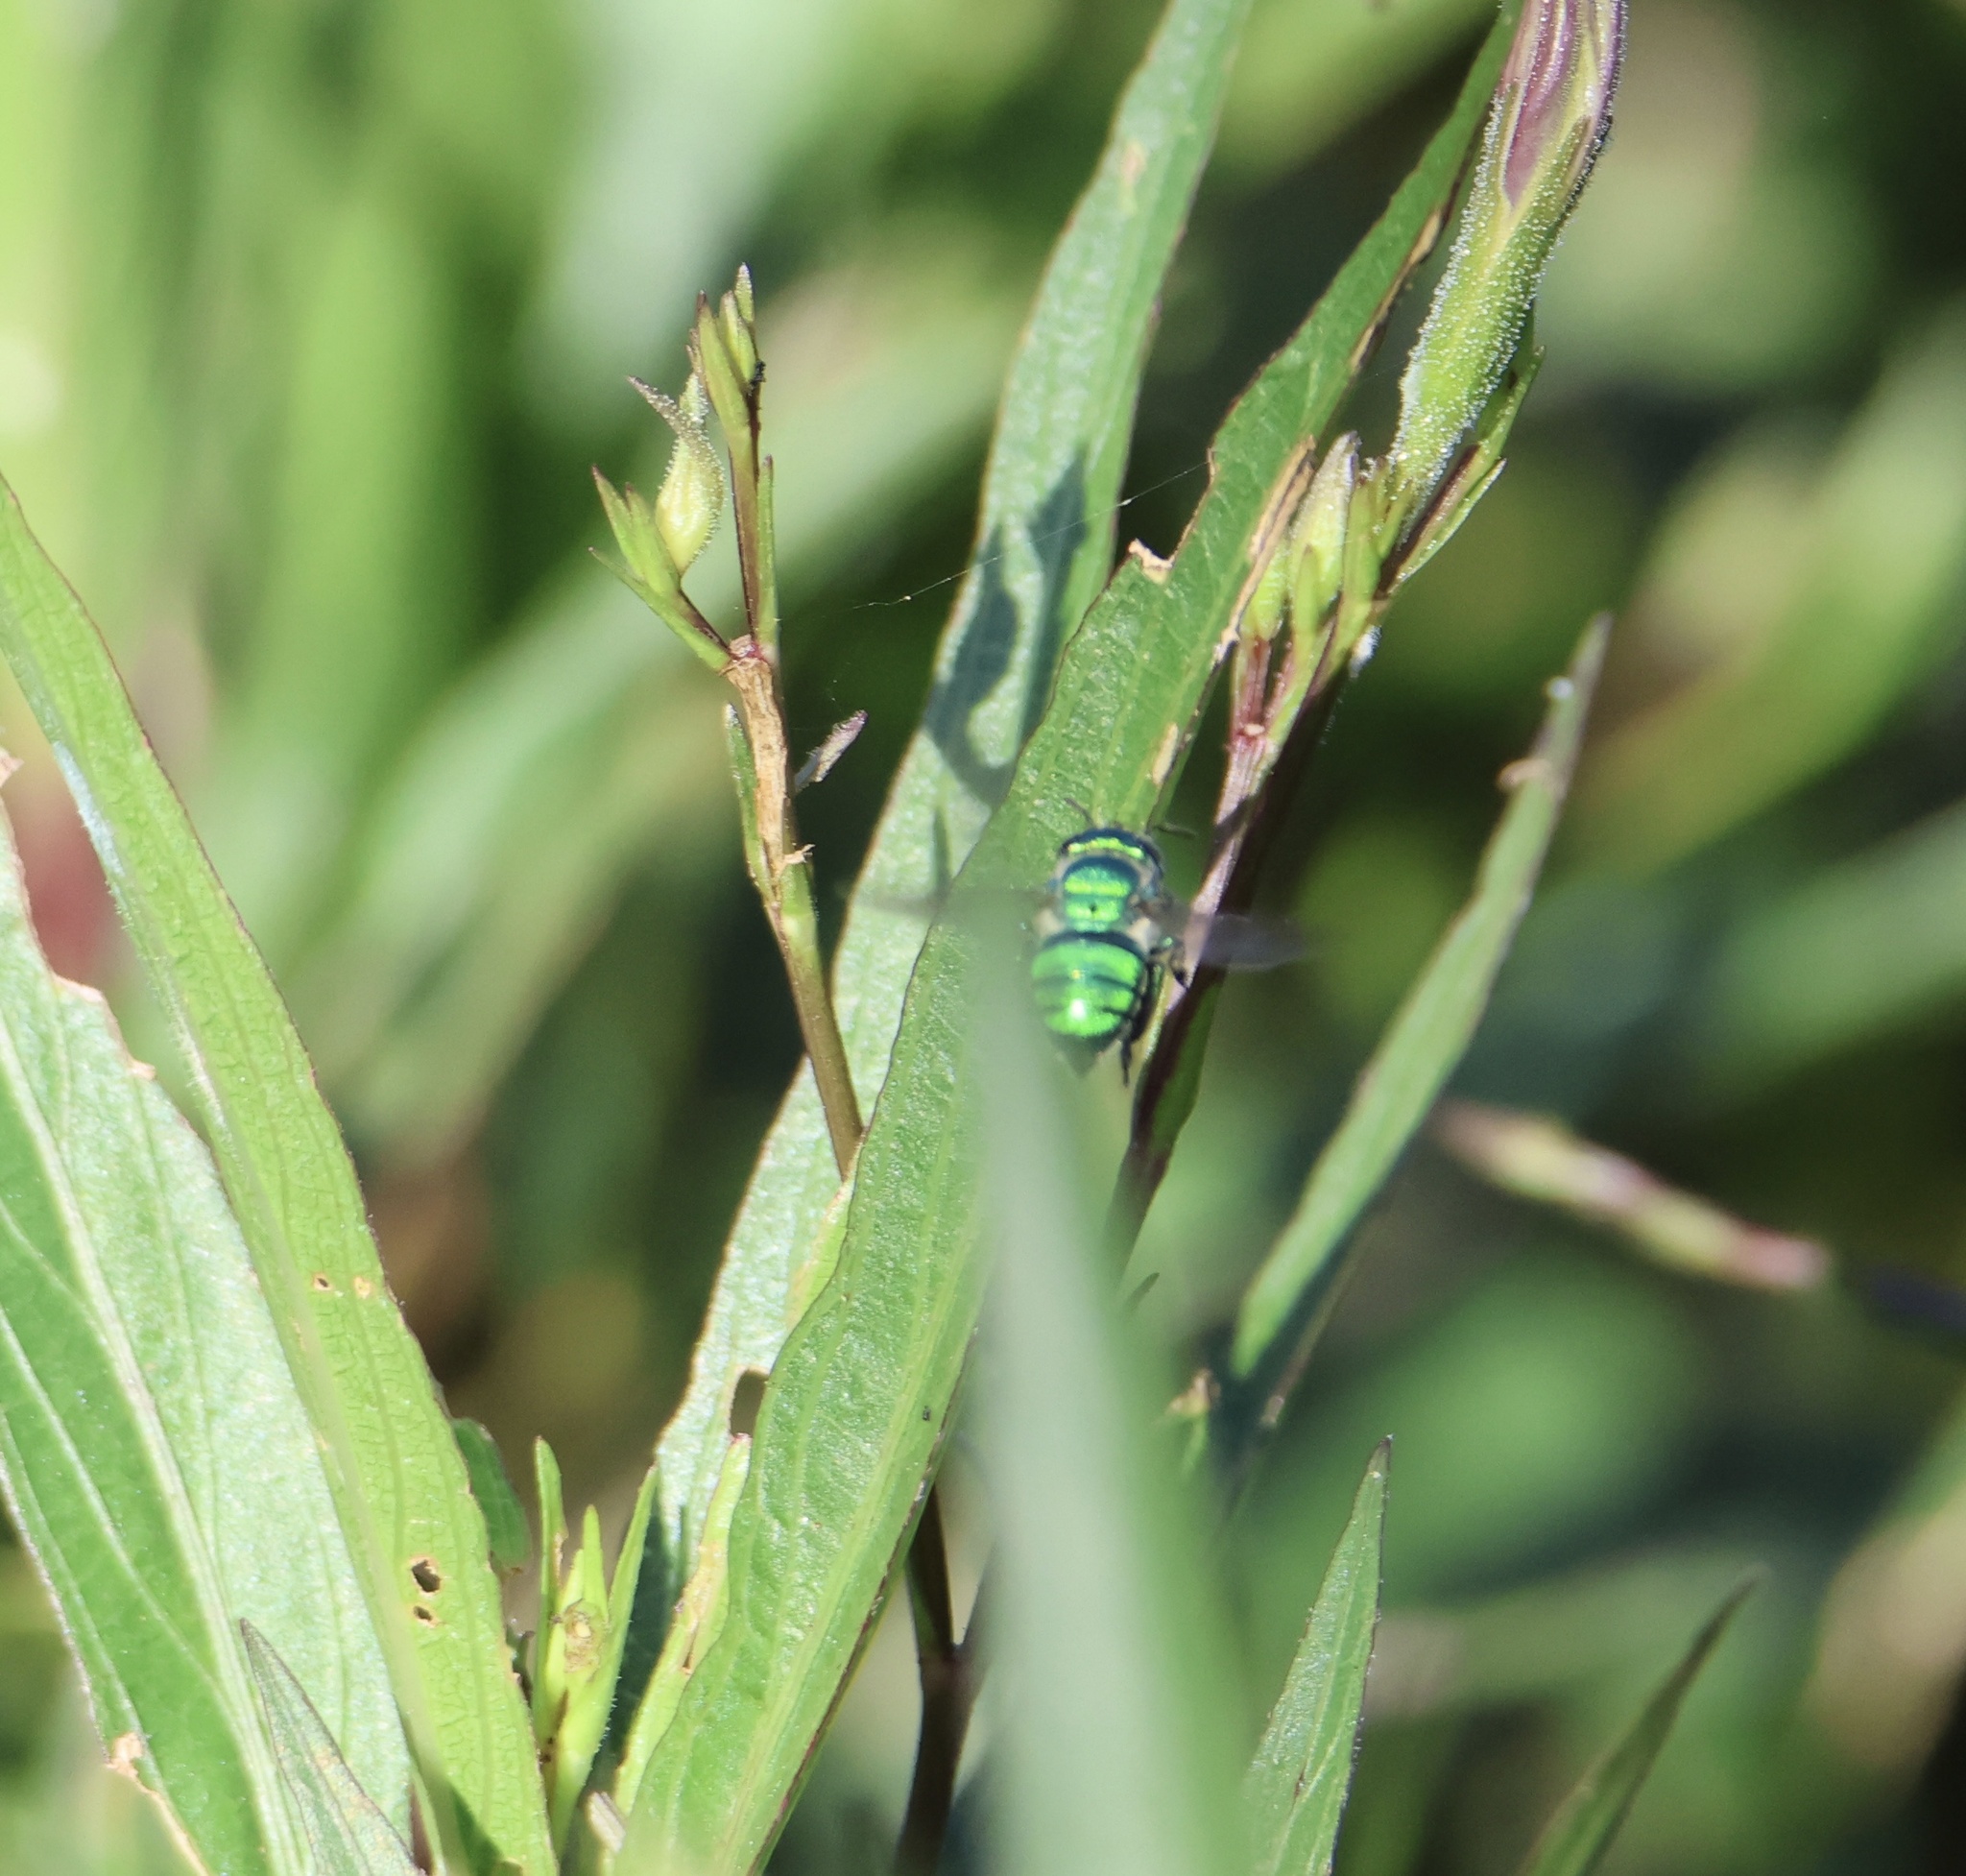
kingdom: Animalia
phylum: Arthropoda
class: Insecta
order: Hymenoptera
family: Apidae
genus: Euglossa
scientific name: Euglossa dilemma
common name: Green orchid bee
